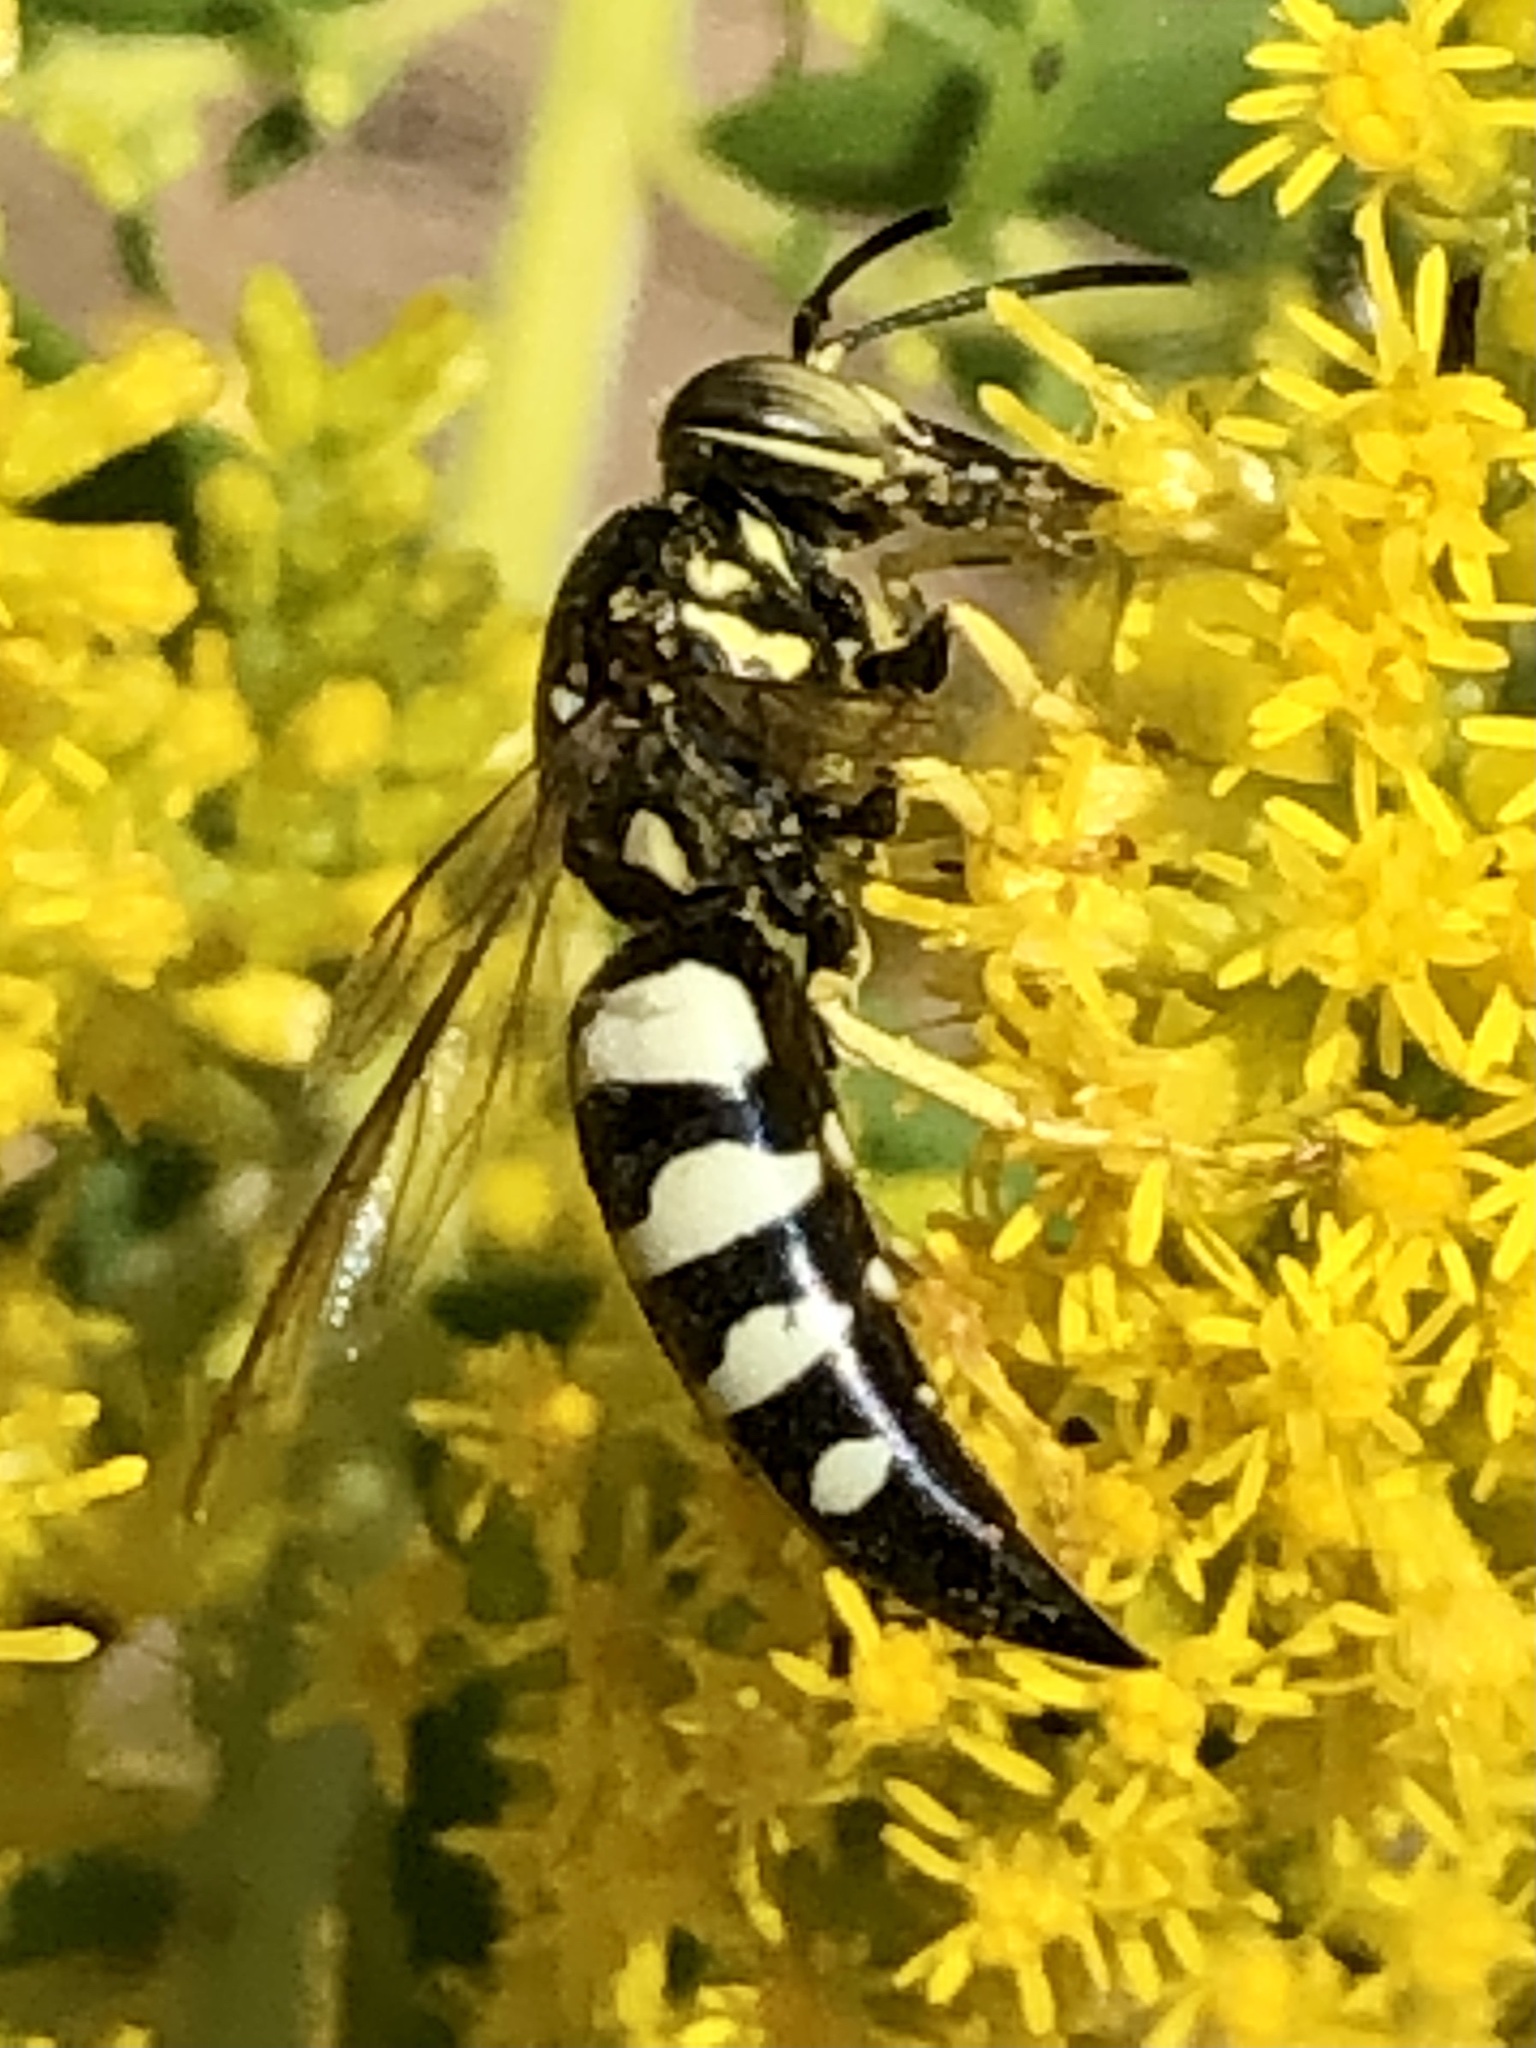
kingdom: Animalia
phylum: Arthropoda
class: Insecta
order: Hymenoptera
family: Crabronidae
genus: Bicyrtes
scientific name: Bicyrtes quadrifasciatus
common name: Four-banded stink bug hunter wasp
